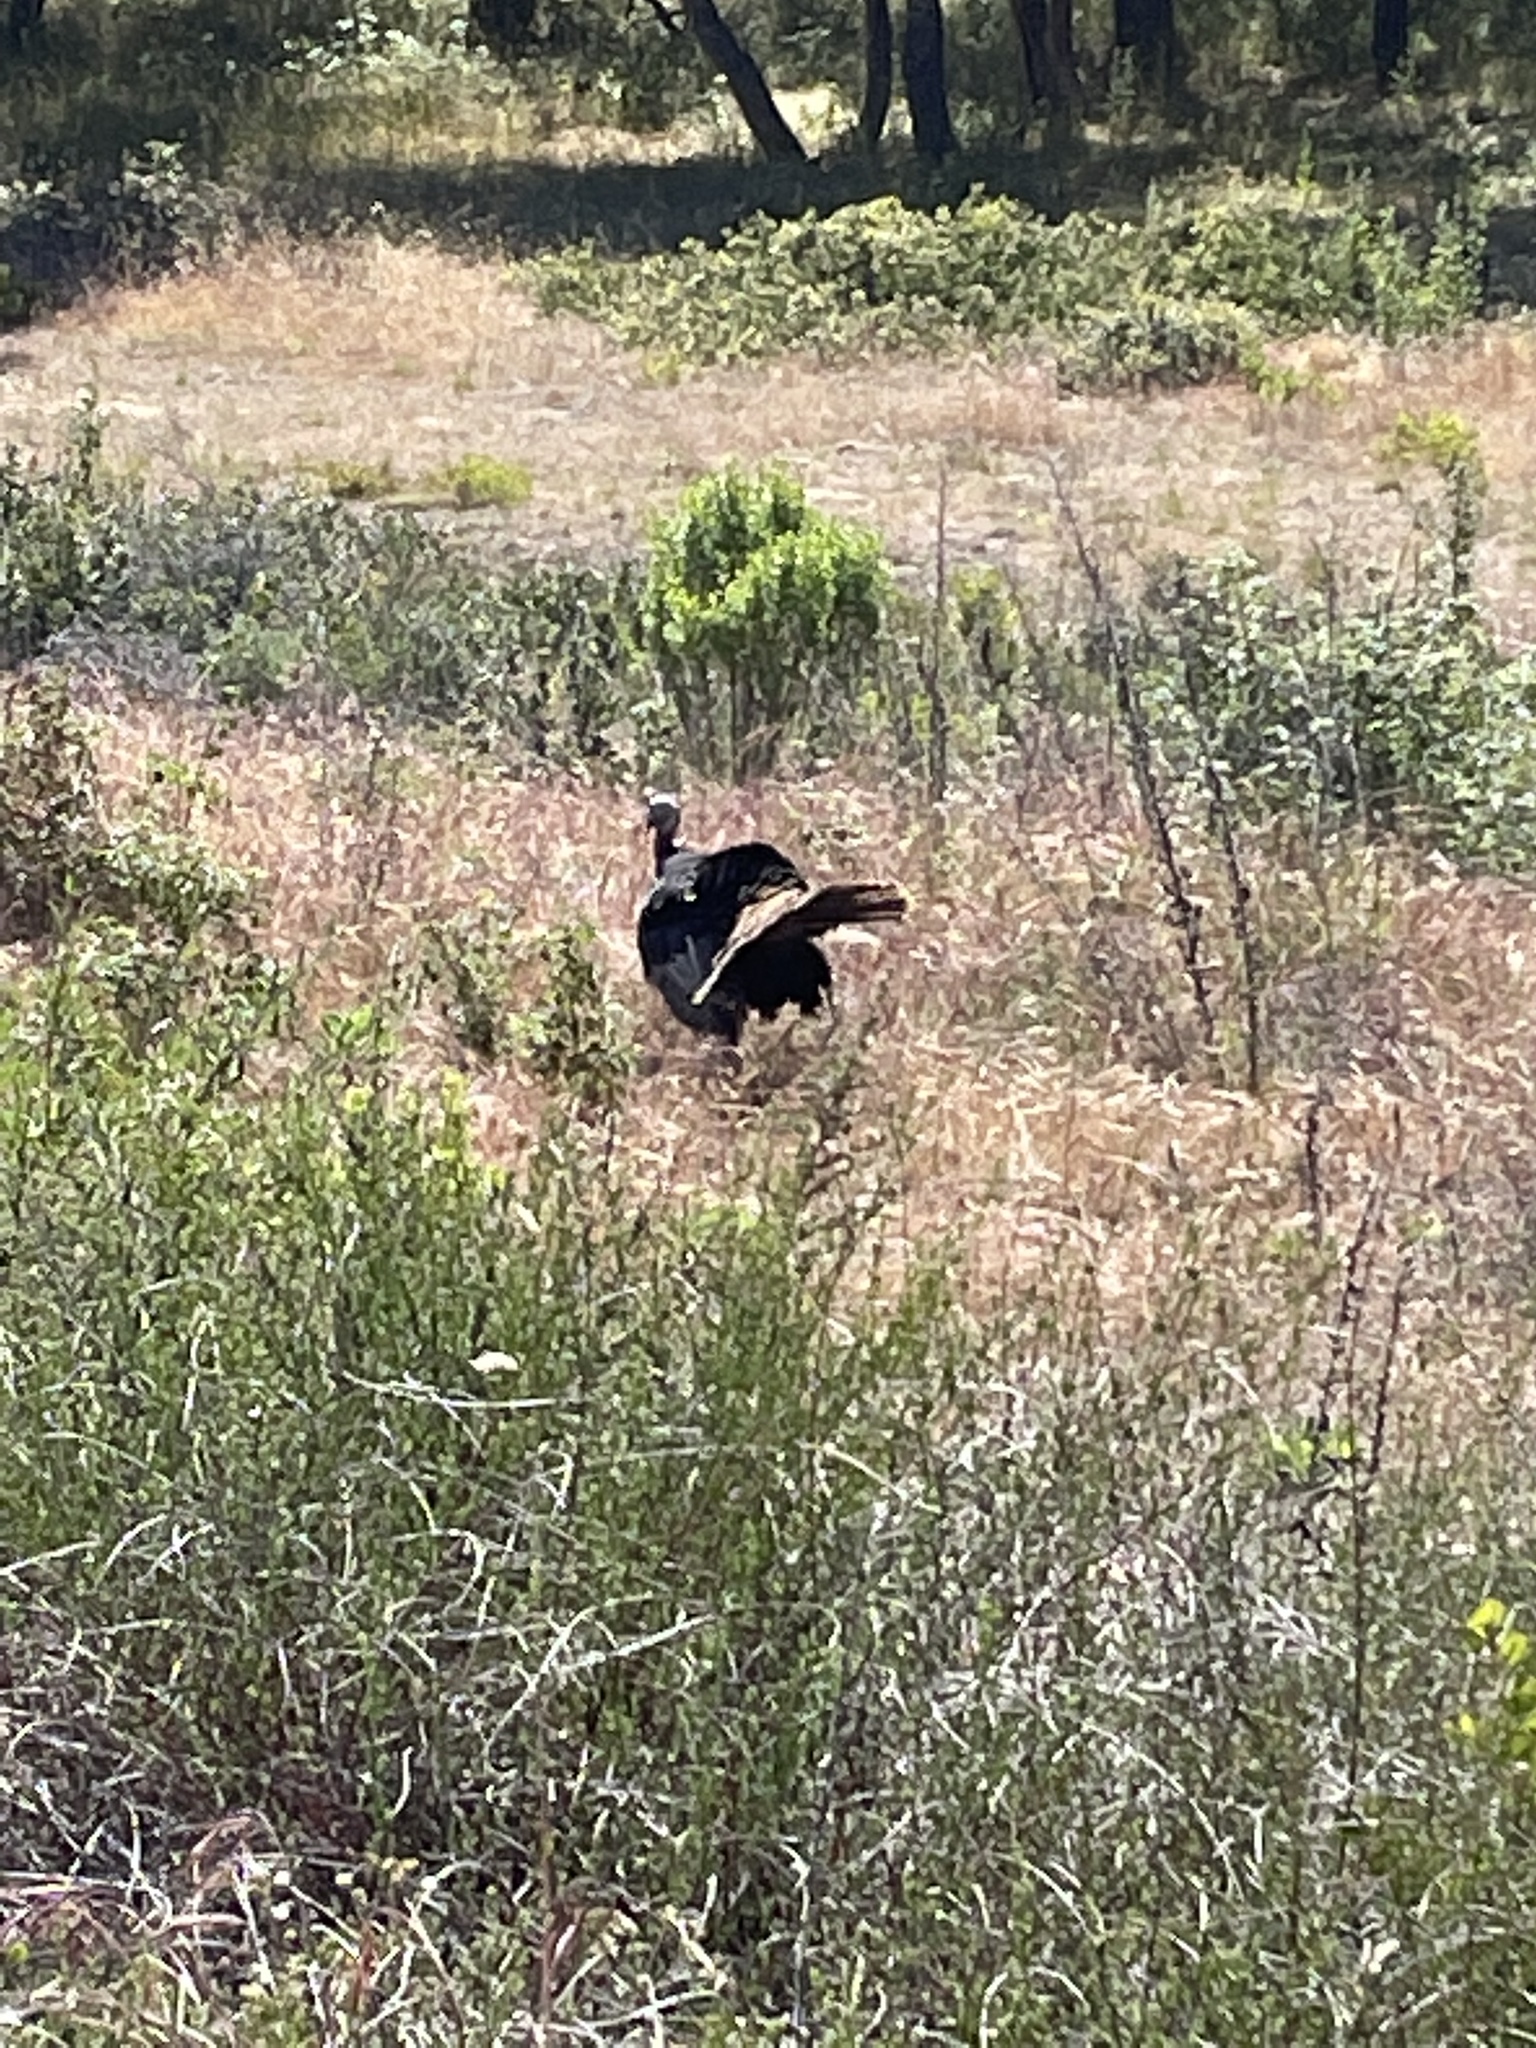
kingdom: Animalia
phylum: Chordata
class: Aves
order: Galliformes
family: Phasianidae
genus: Meleagris
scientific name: Meleagris gallopavo
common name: Wild turkey
